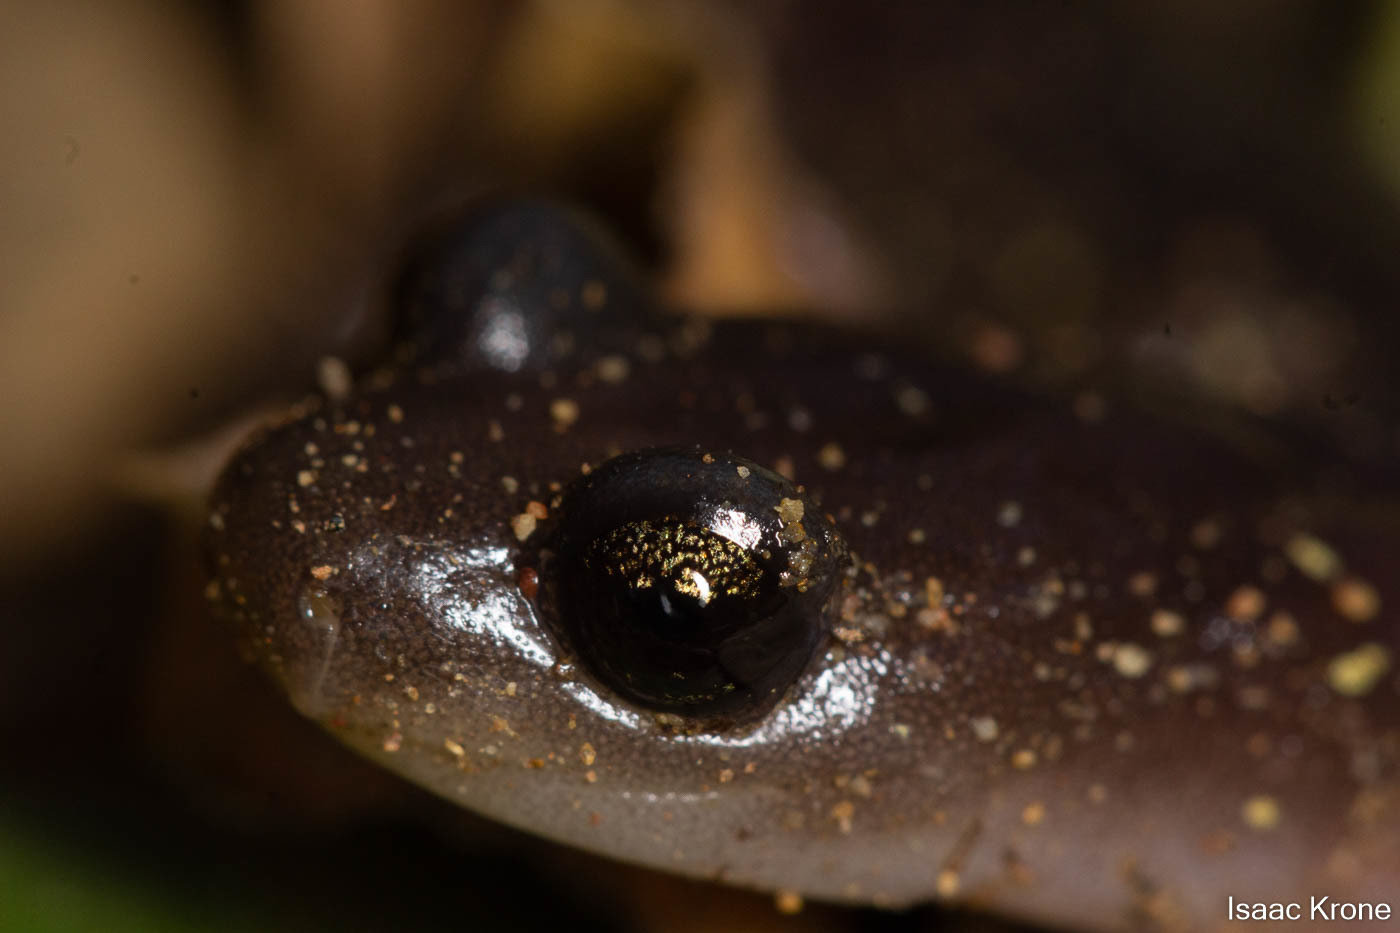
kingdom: Animalia
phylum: Chordata
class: Amphibia
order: Caudata
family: Plethodontidae
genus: Aneides
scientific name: Aneides lugubris
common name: Arboreal salamander
